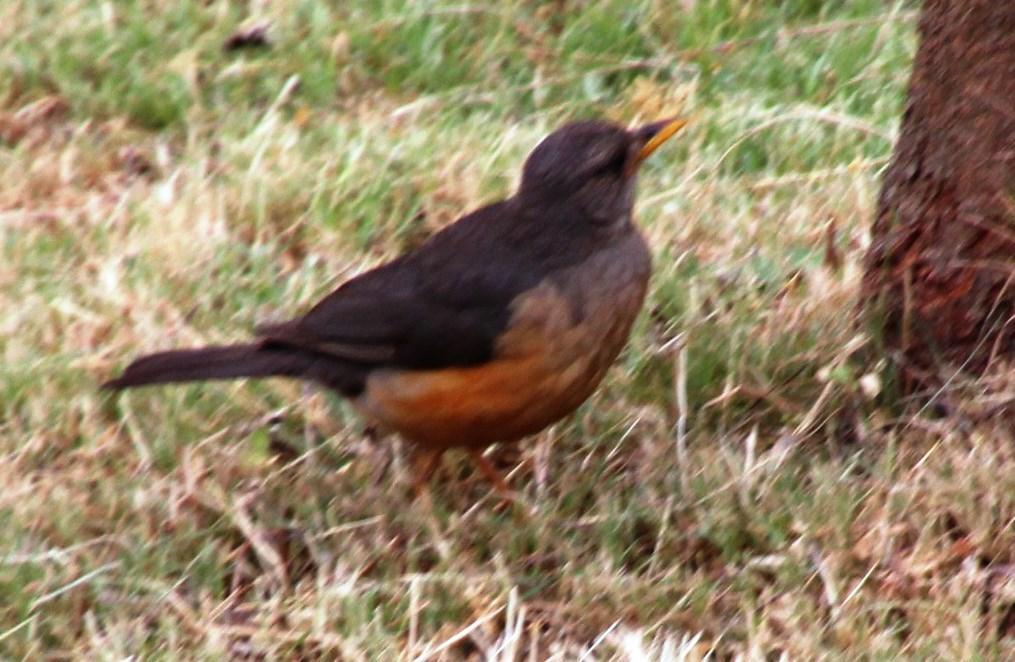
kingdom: Animalia
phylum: Chordata
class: Aves
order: Passeriformes
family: Turdidae
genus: Turdus
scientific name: Turdus olivaceus
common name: Olive thrush
